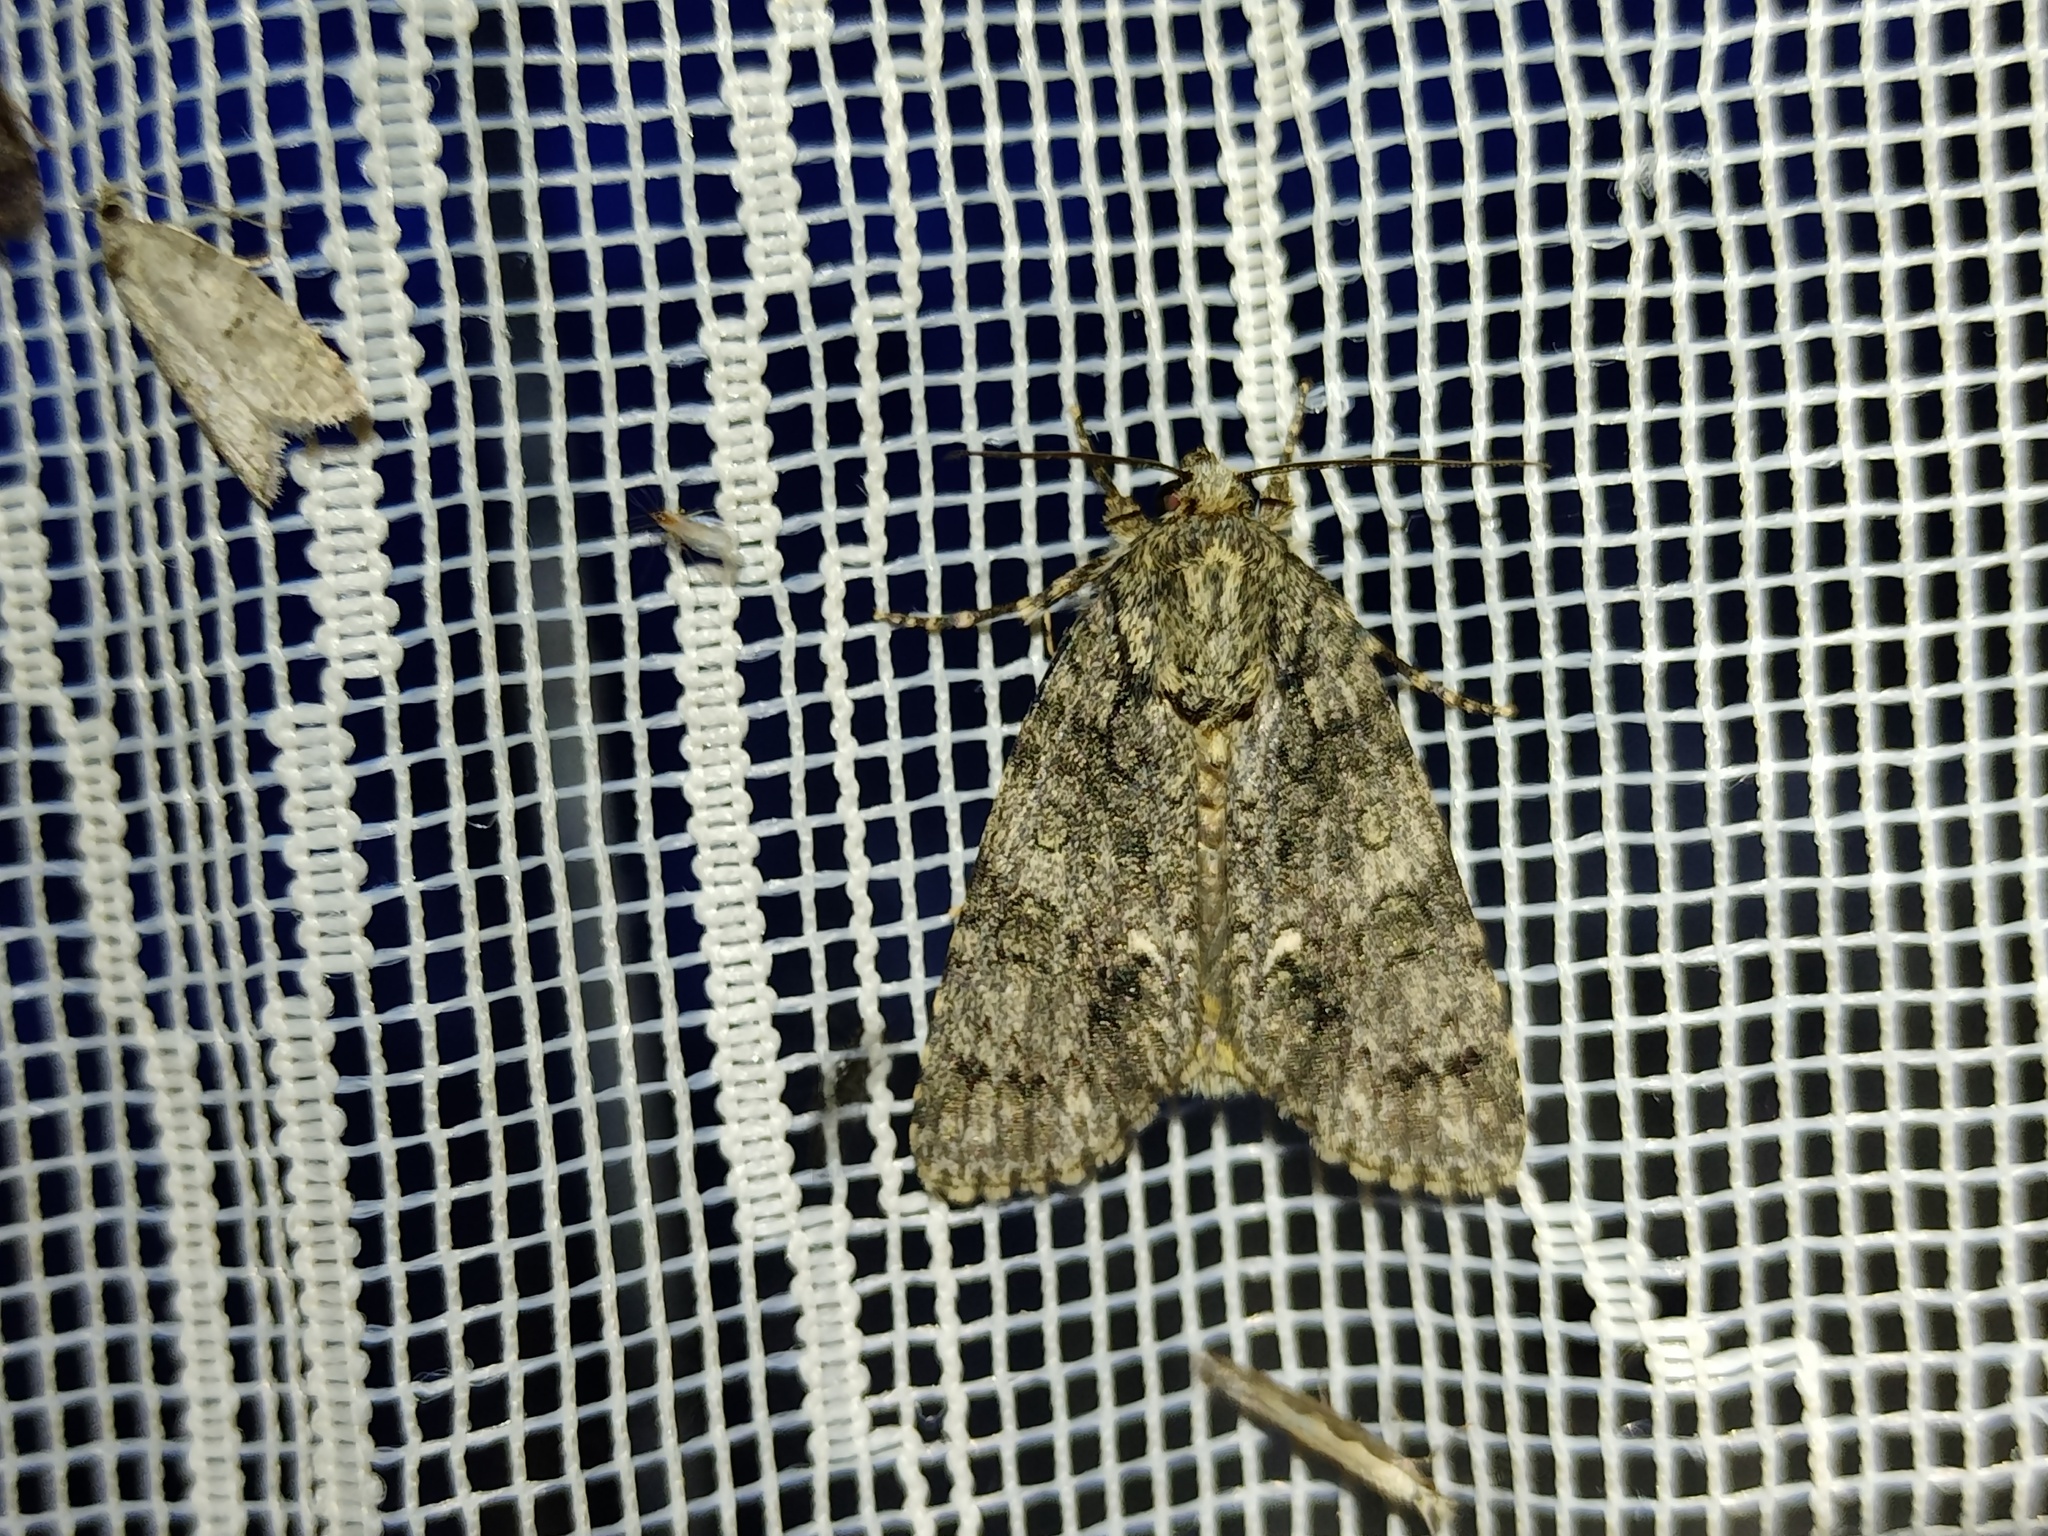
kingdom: Animalia
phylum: Arthropoda
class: Insecta
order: Lepidoptera
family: Noctuidae
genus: Acronicta
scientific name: Acronicta rumicis
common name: Knot grass
